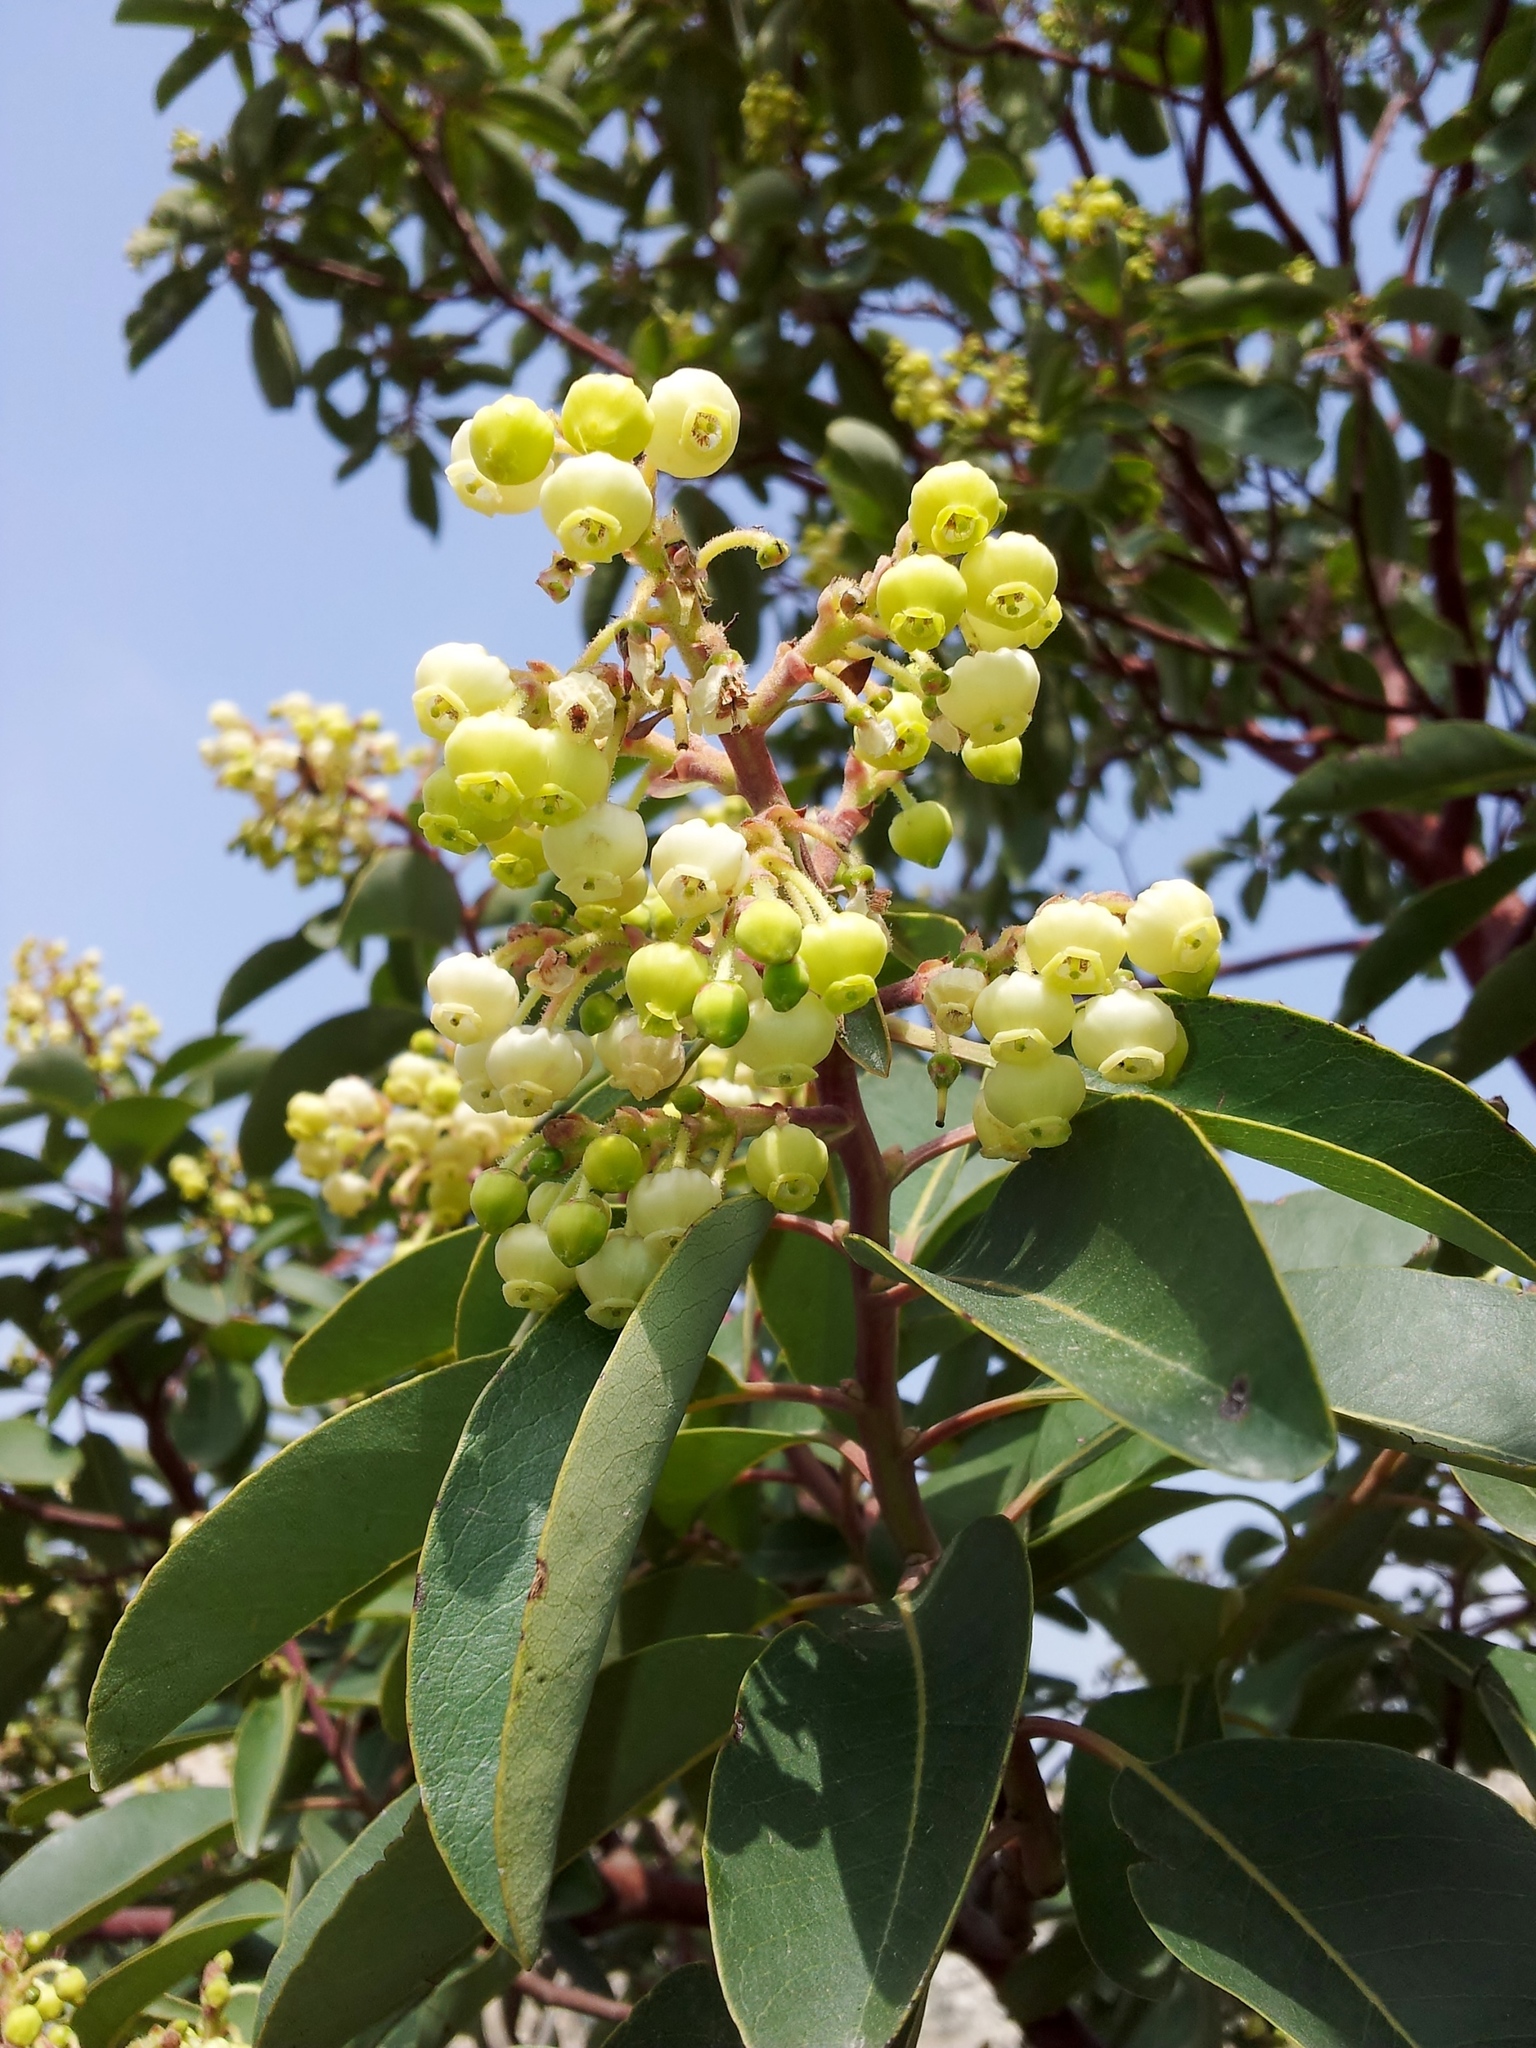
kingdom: Plantae
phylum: Tracheophyta
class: Magnoliopsida
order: Ericales
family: Ericaceae
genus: Arbutus
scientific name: Arbutus andrachne
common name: Greek strawberry tree
